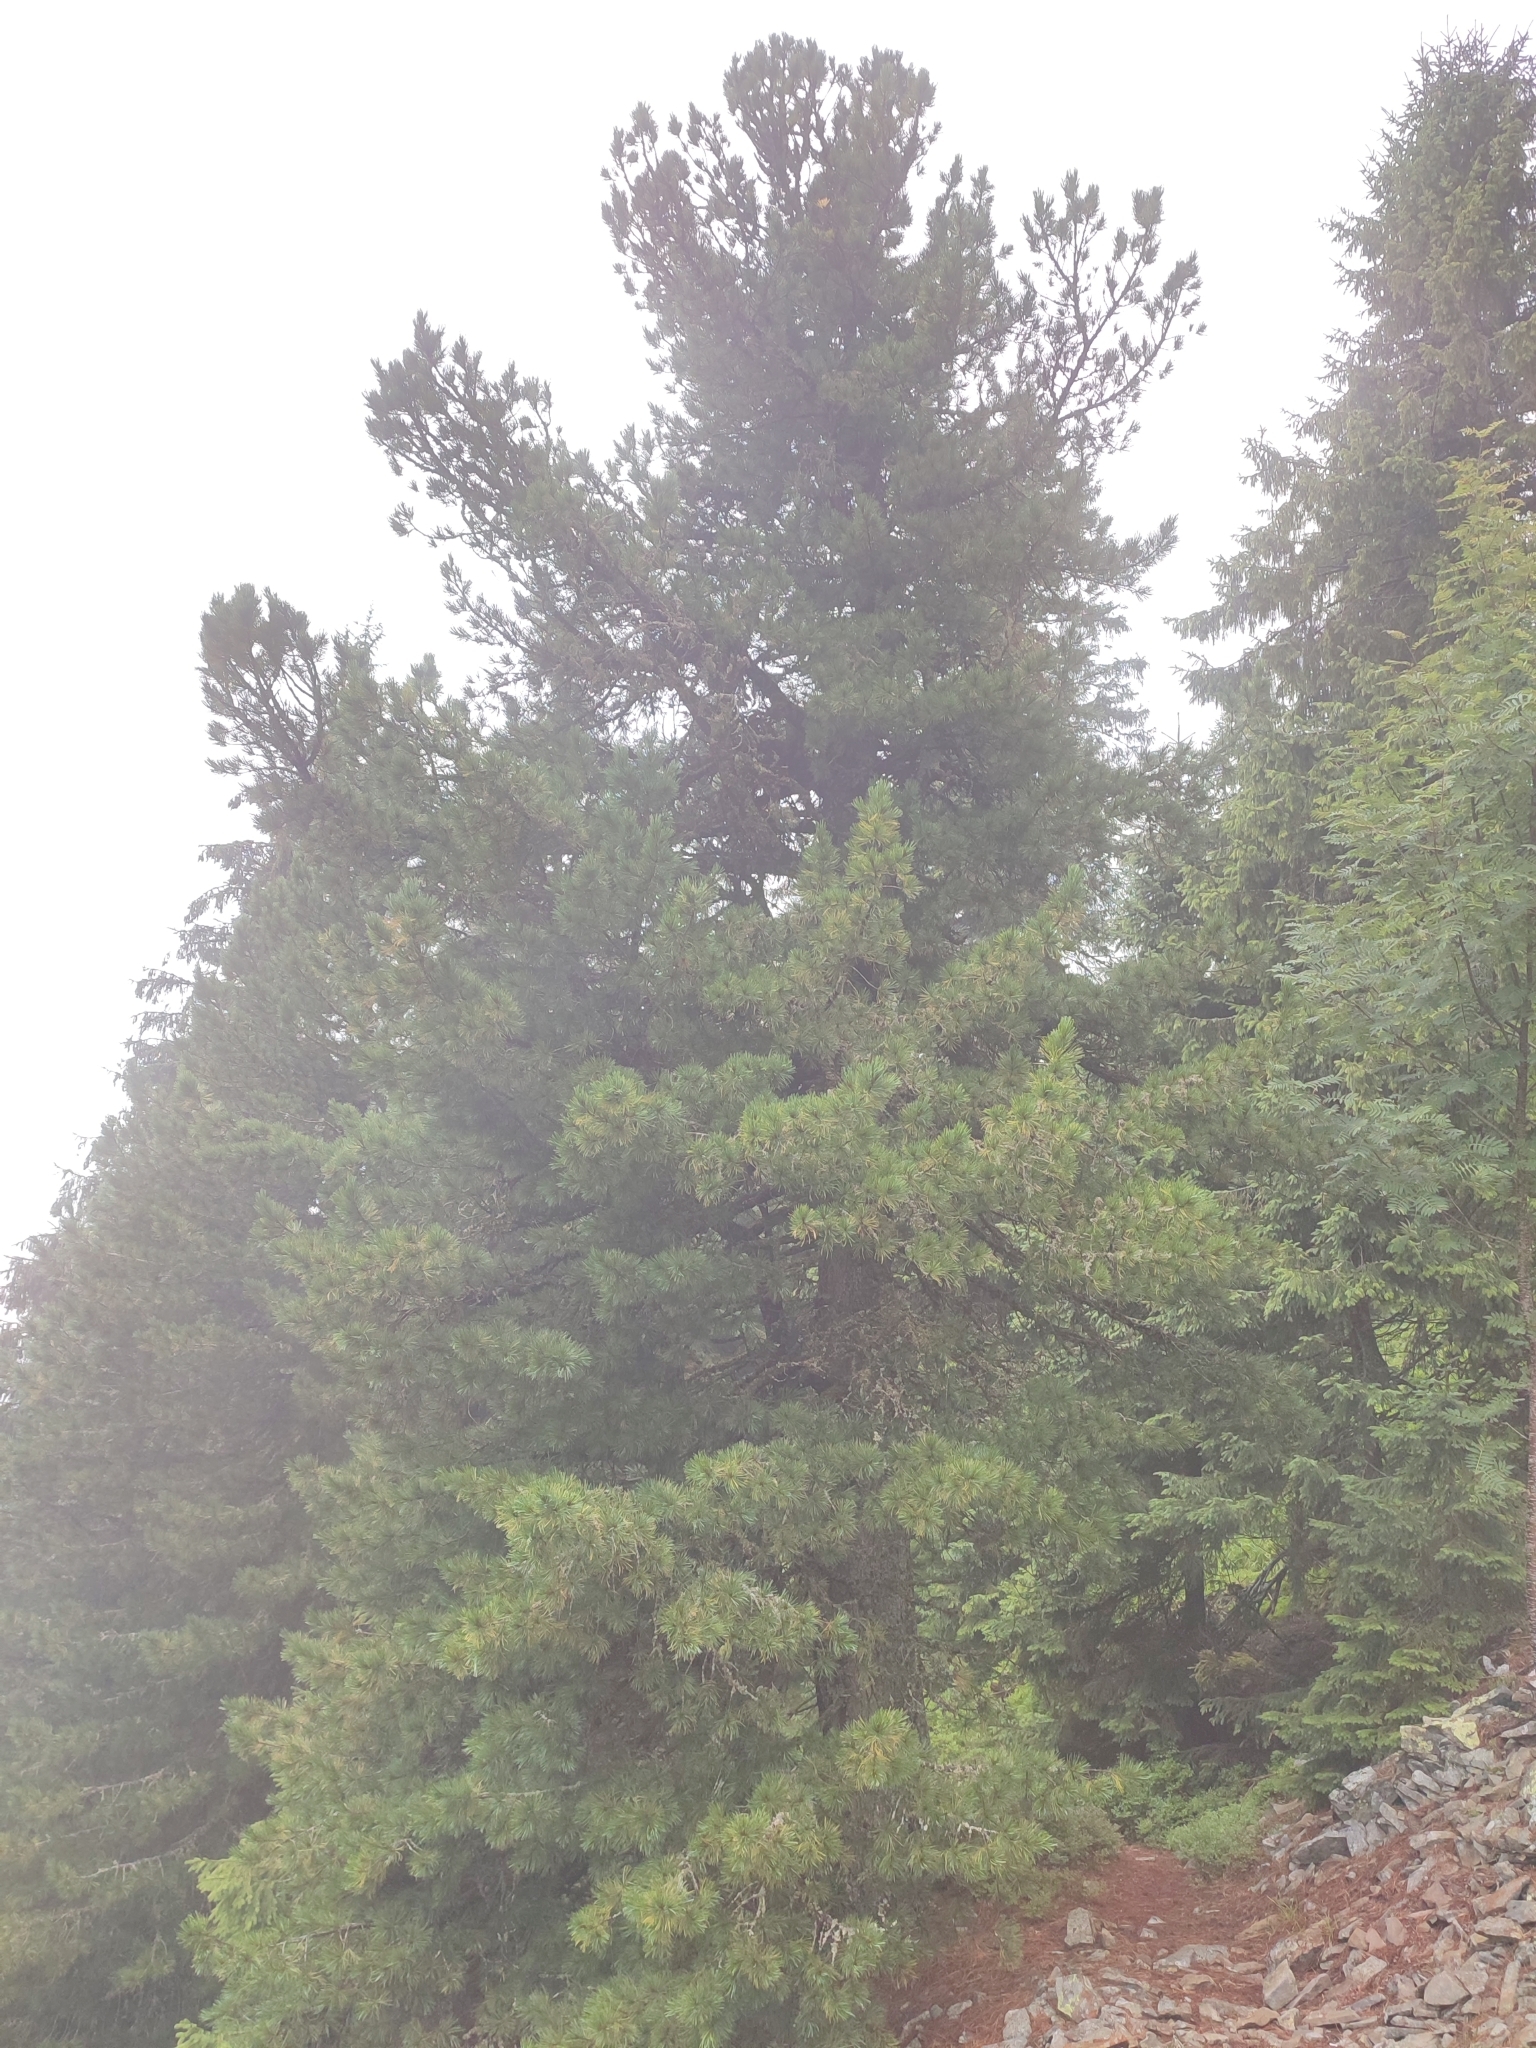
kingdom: Plantae
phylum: Tracheophyta
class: Pinopsida
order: Pinales
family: Pinaceae
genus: Pinus
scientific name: Pinus cembra
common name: Arolla pine
